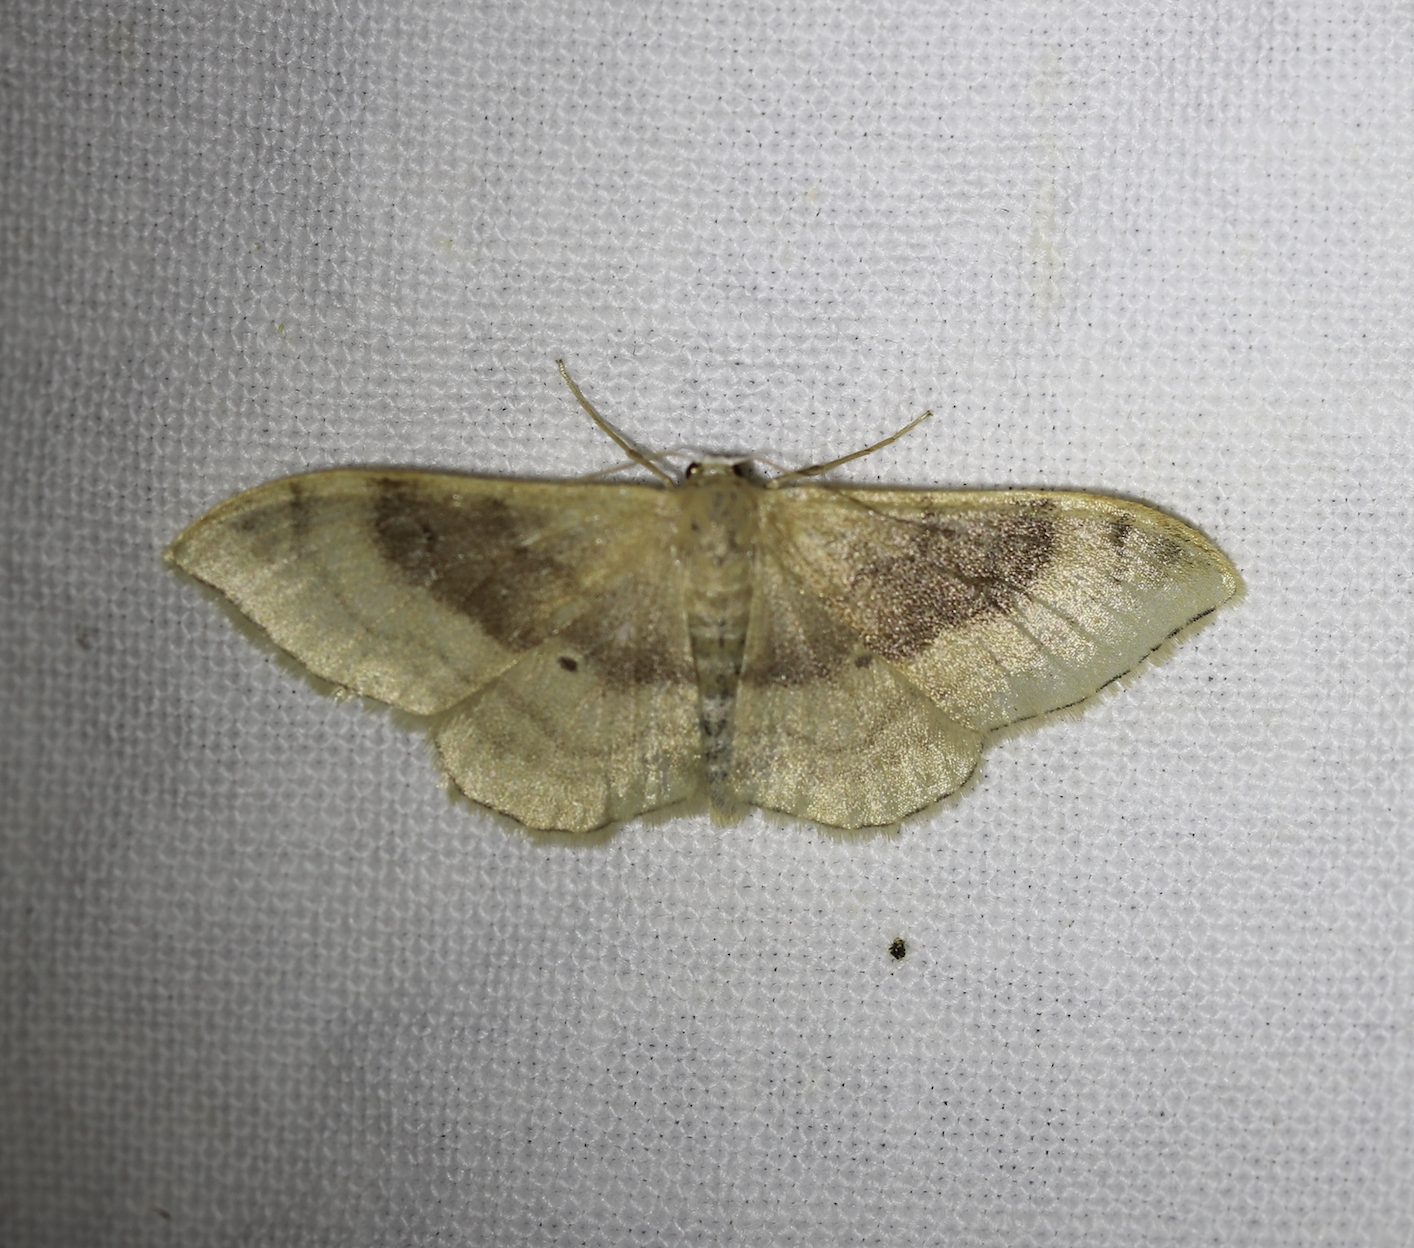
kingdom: Animalia
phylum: Arthropoda
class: Insecta
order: Lepidoptera
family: Geometridae
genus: Idaea
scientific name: Idaea degeneraria
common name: Portland ribbon wave
